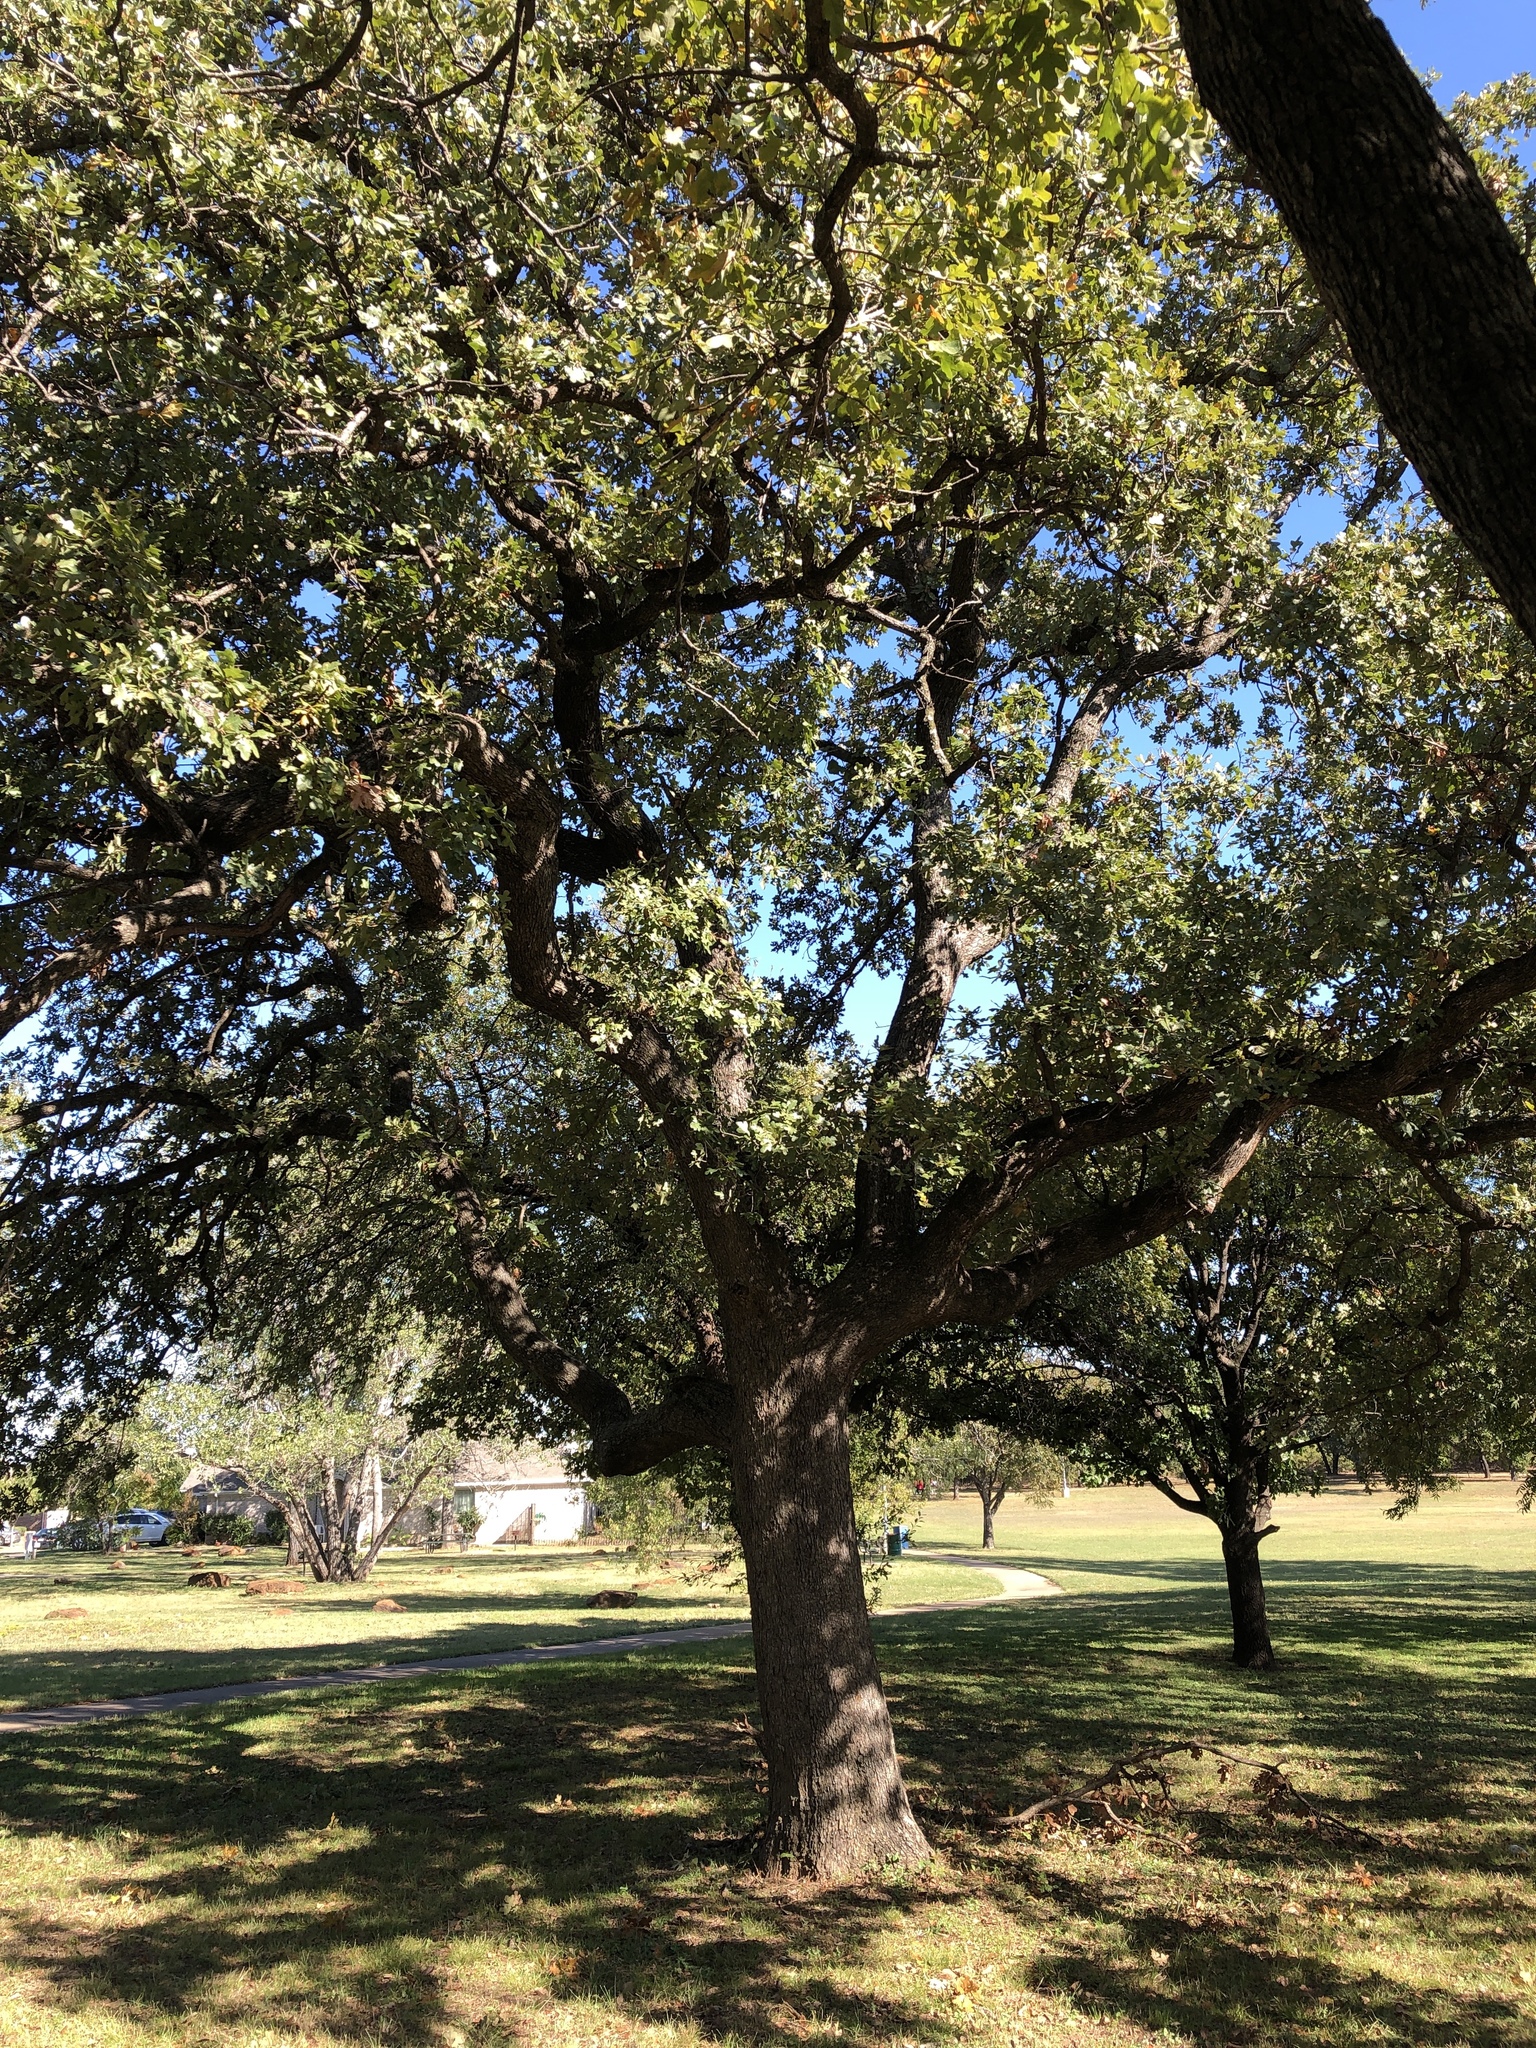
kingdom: Plantae
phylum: Tracheophyta
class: Magnoliopsida
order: Fagales
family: Fagaceae
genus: Quercus
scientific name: Quercus stellata
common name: Post oak
